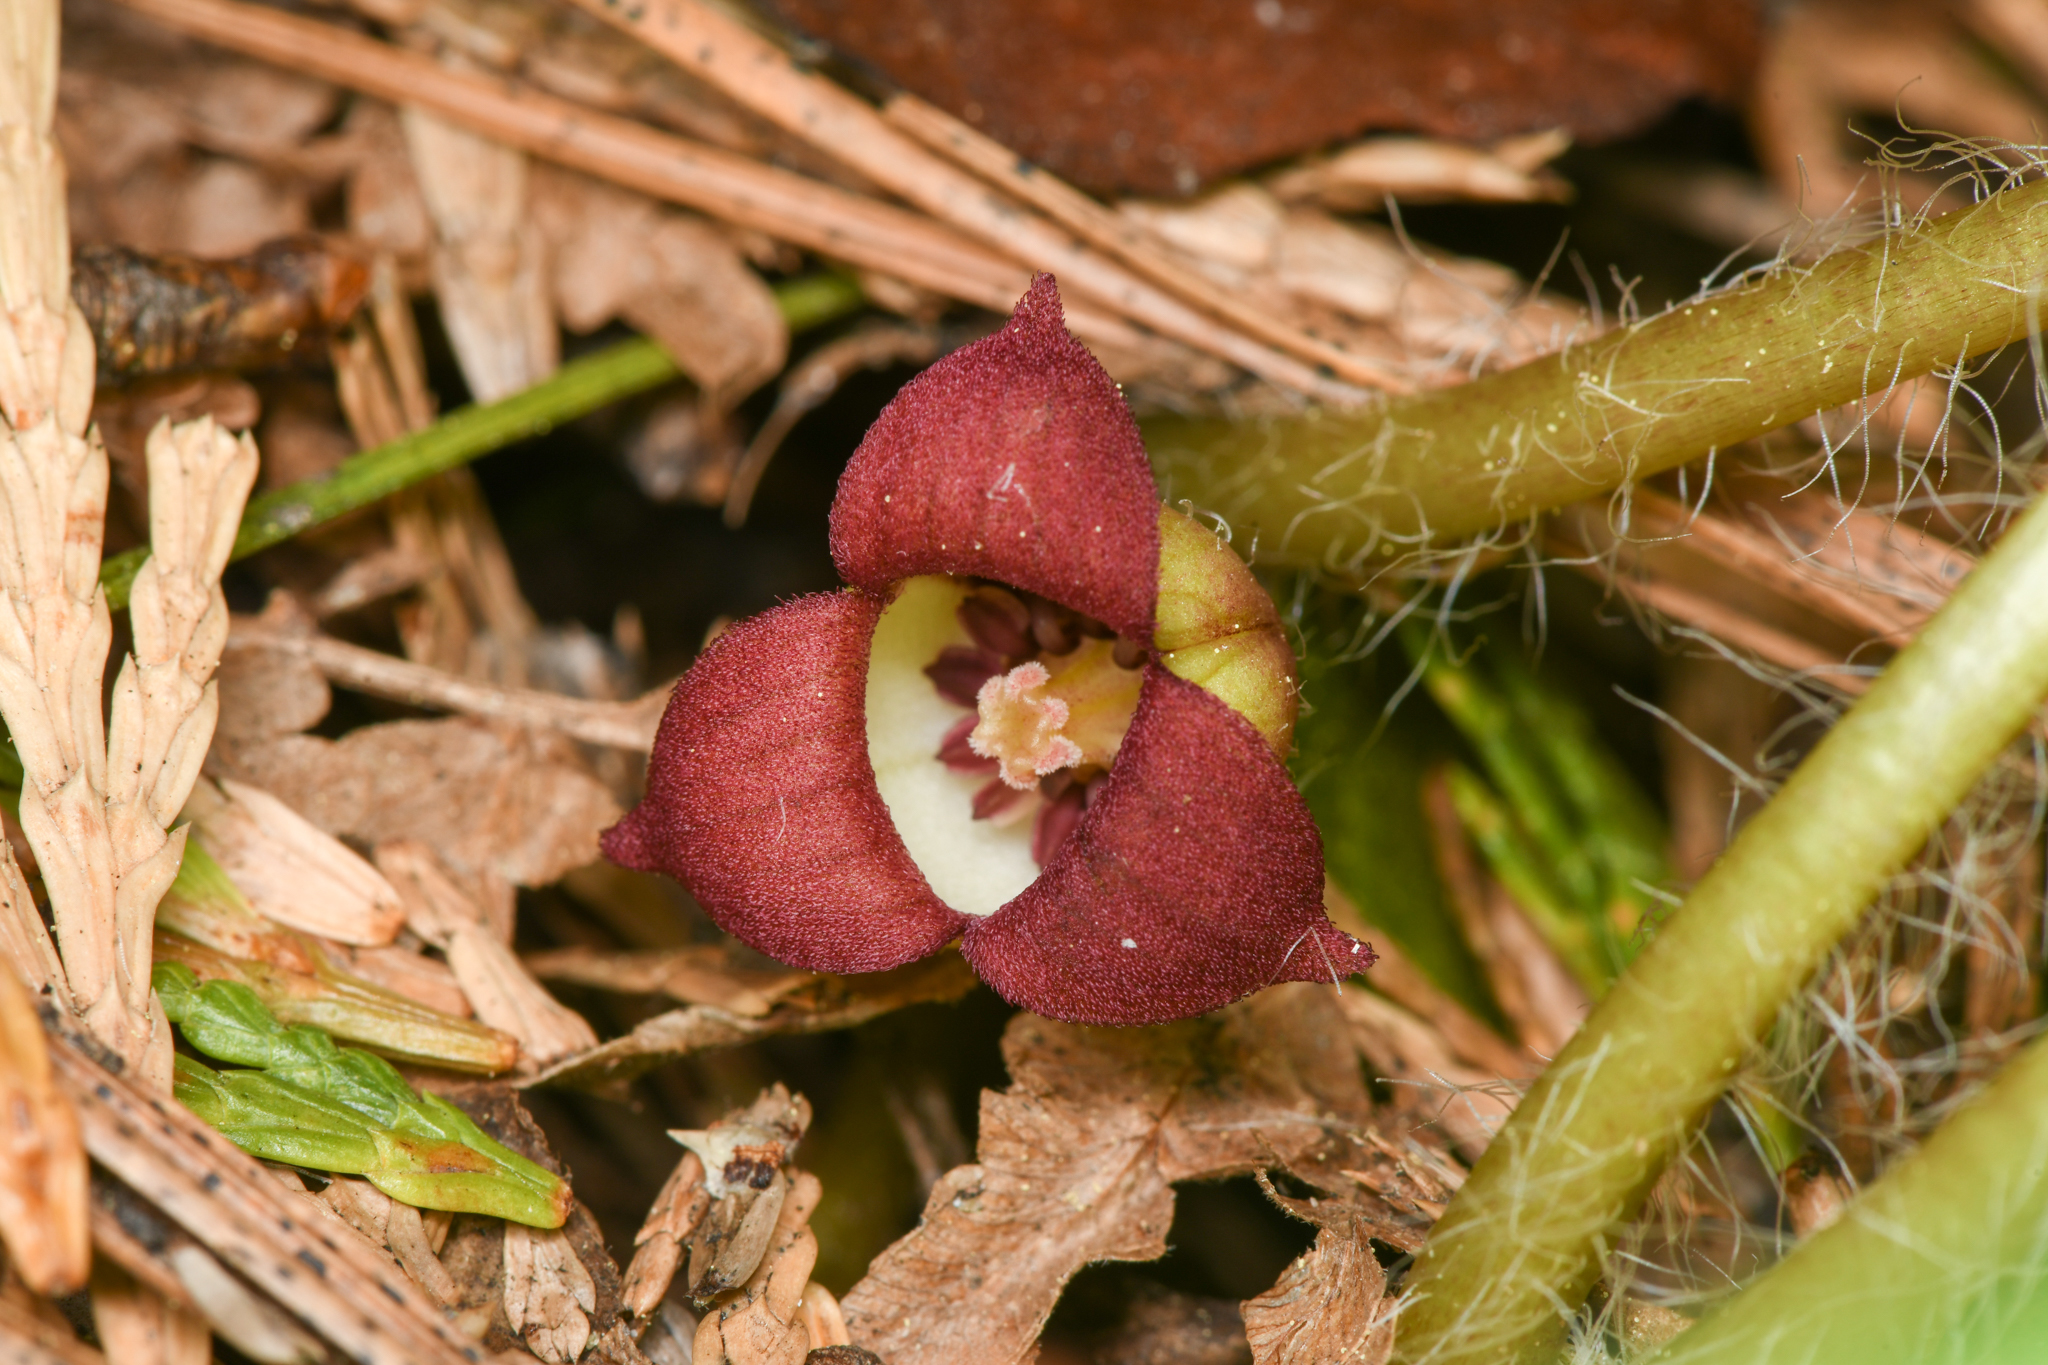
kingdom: Plantae
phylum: Tracheophyta
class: Magnoliopsida
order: Piperales
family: Aristolochiaceae
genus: Asarum
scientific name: Asarum lemmonii
